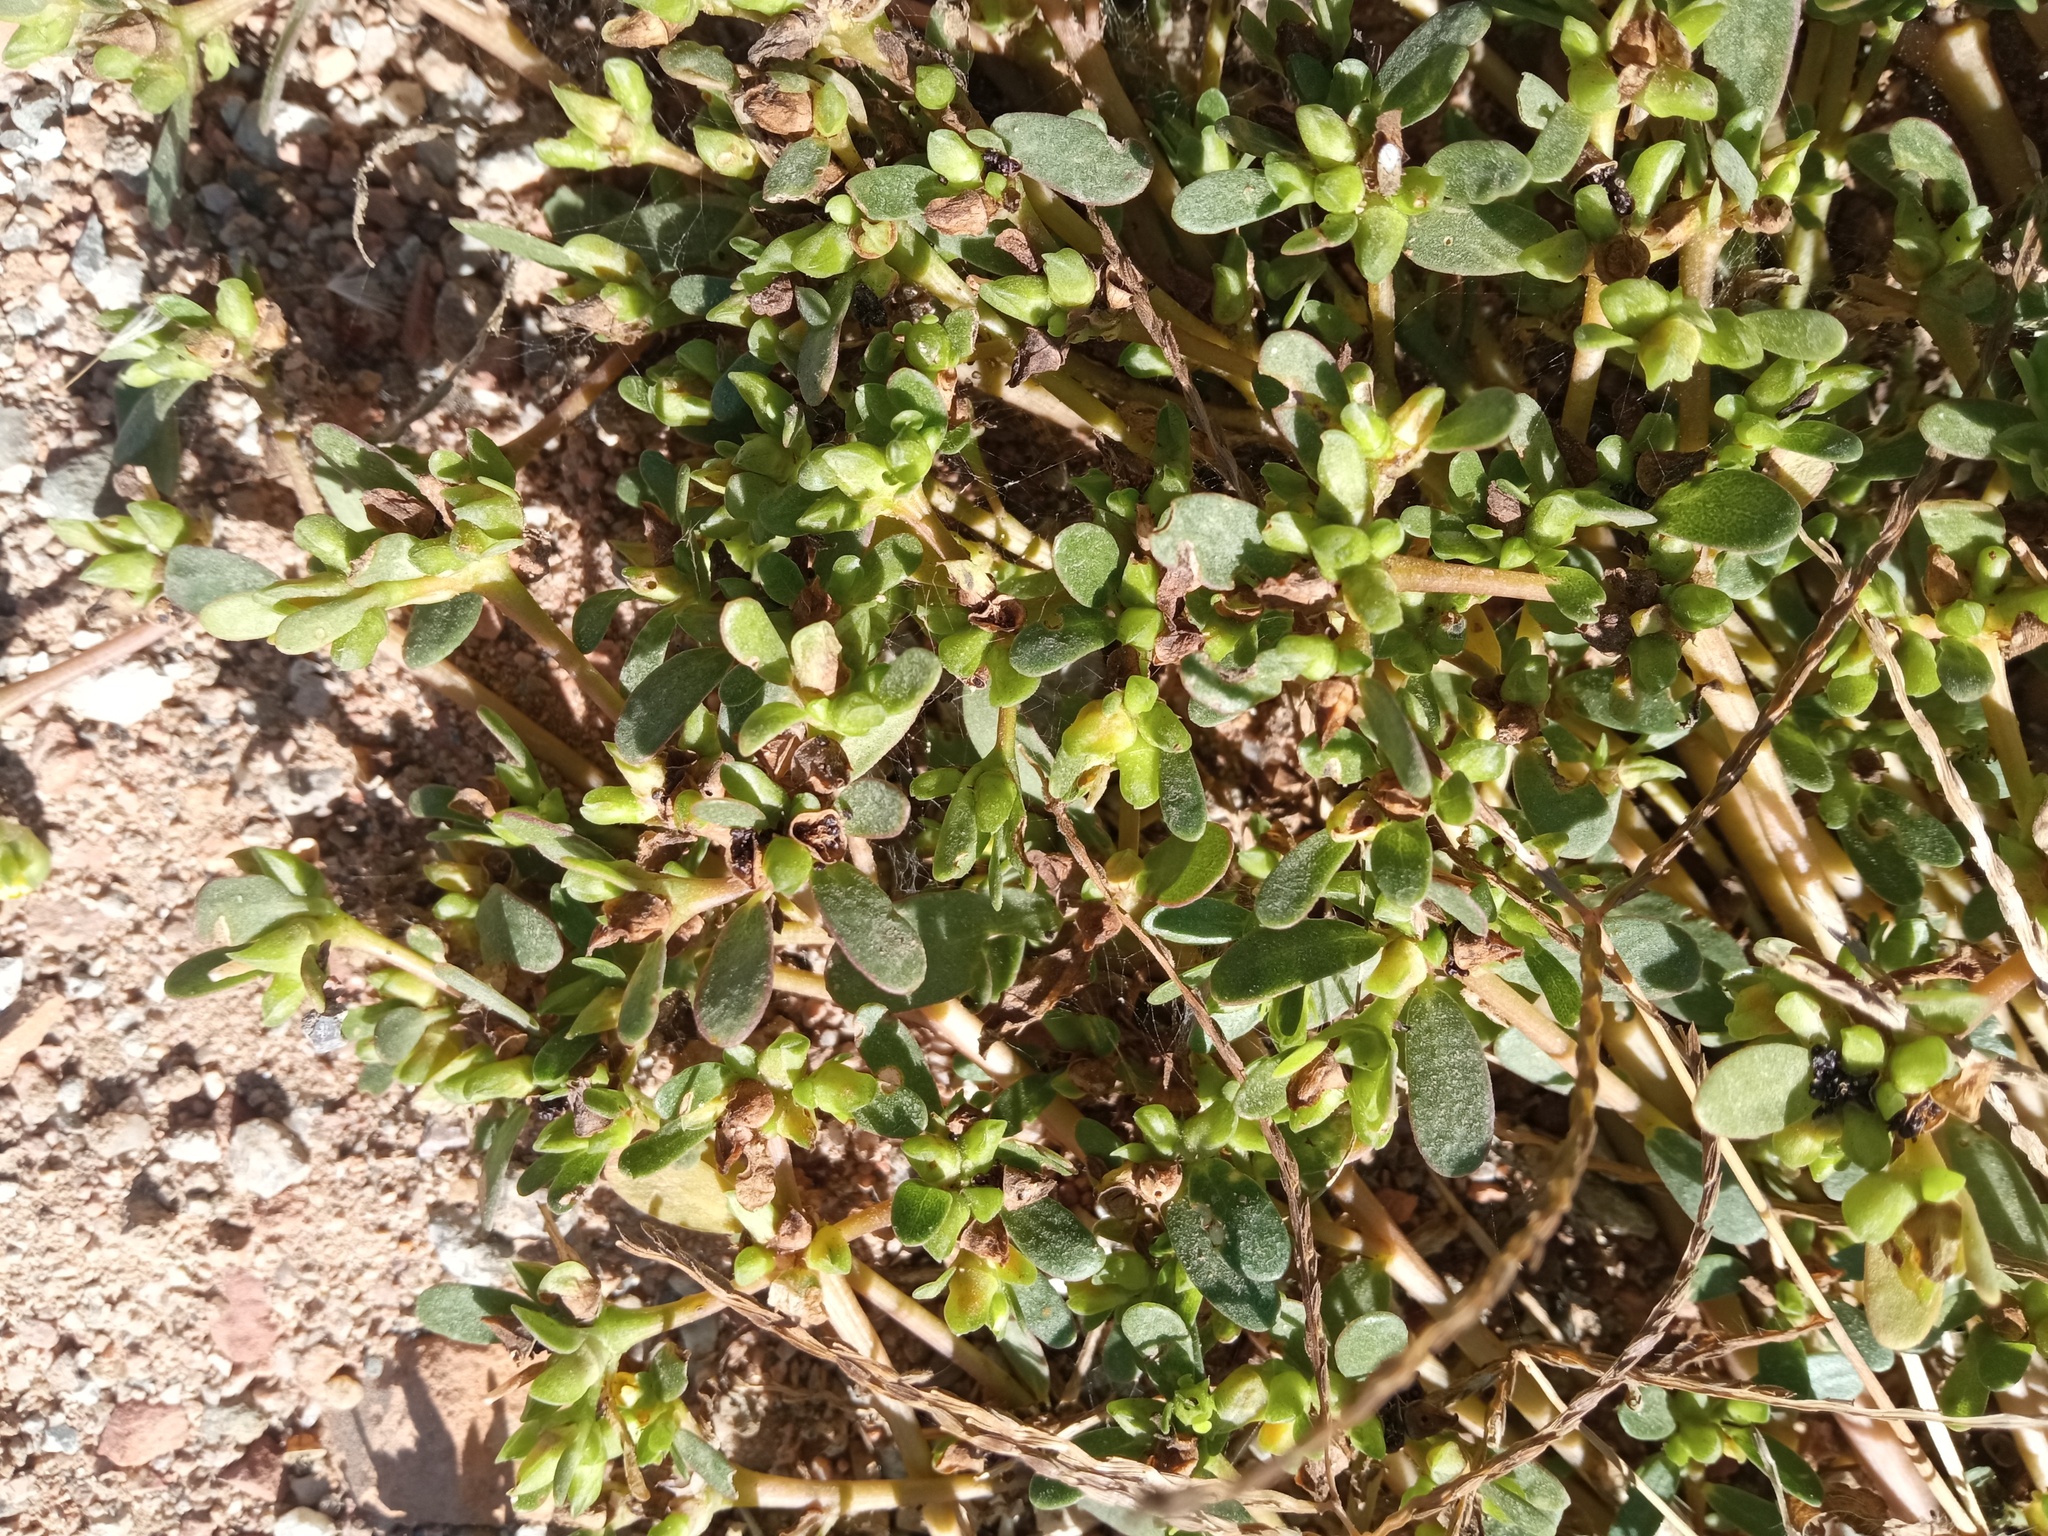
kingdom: Plantae
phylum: Tracheophyta
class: Magnoliopsida
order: Caryophyllales
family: Portulacaceae
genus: Portulaca
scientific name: Portulaca oleracea
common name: Common purslane
